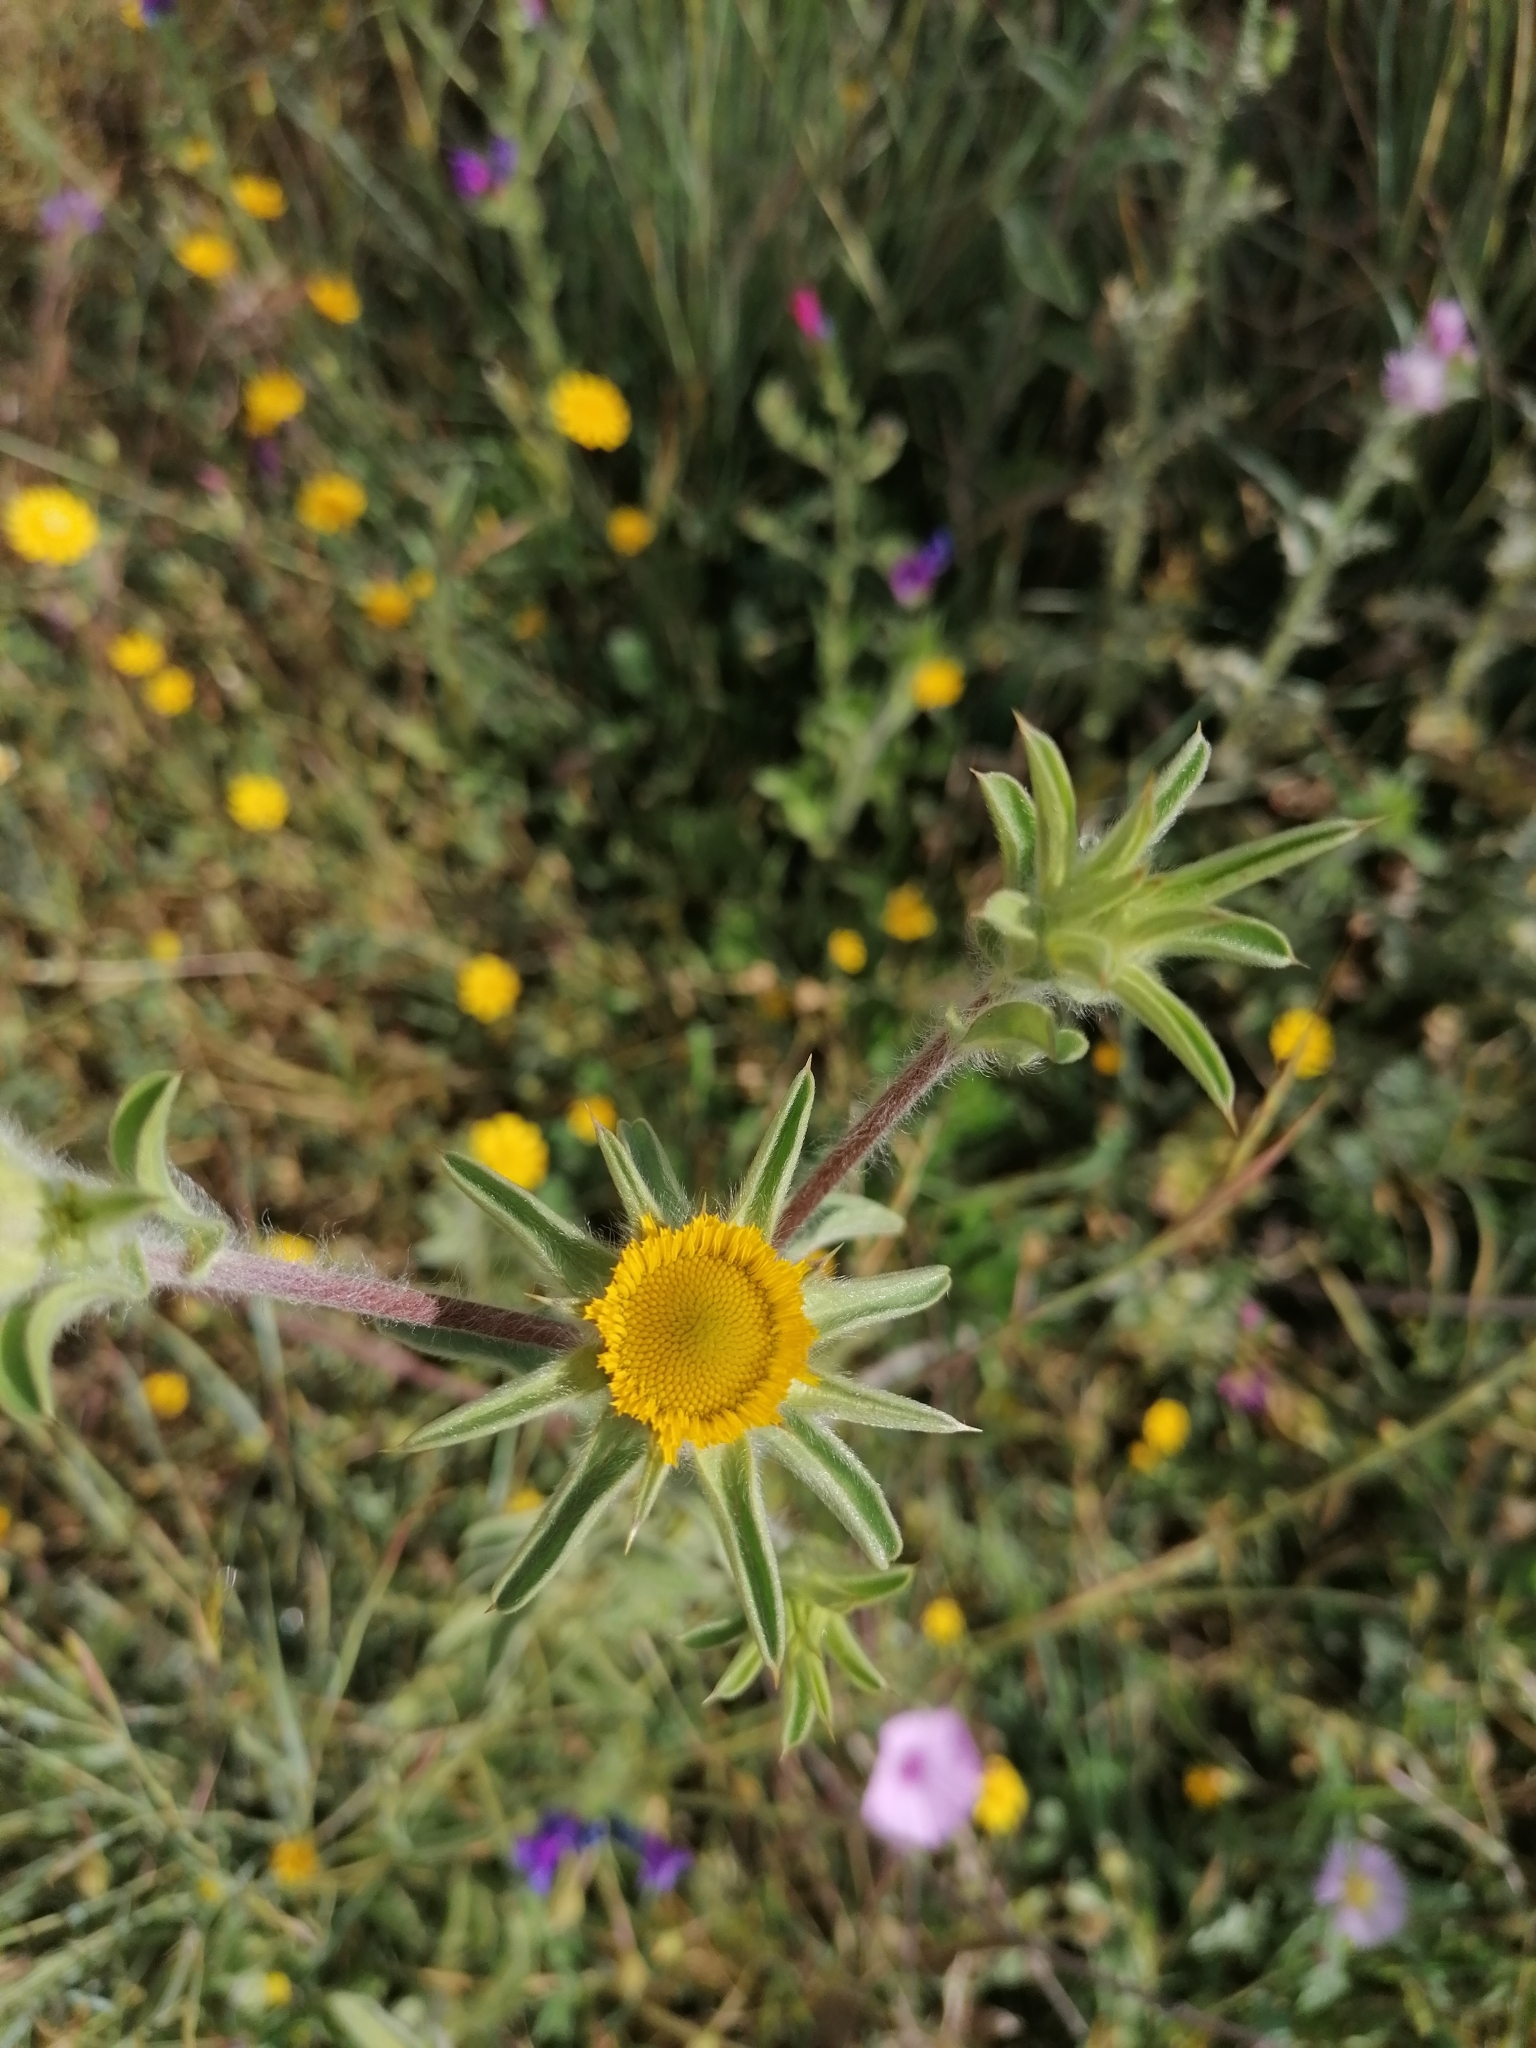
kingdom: Plantae
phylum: Tracheophyta
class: Magnoliopsida
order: Asterales
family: Asteraceae
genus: Pallenis
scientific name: Pallenis spinosa
